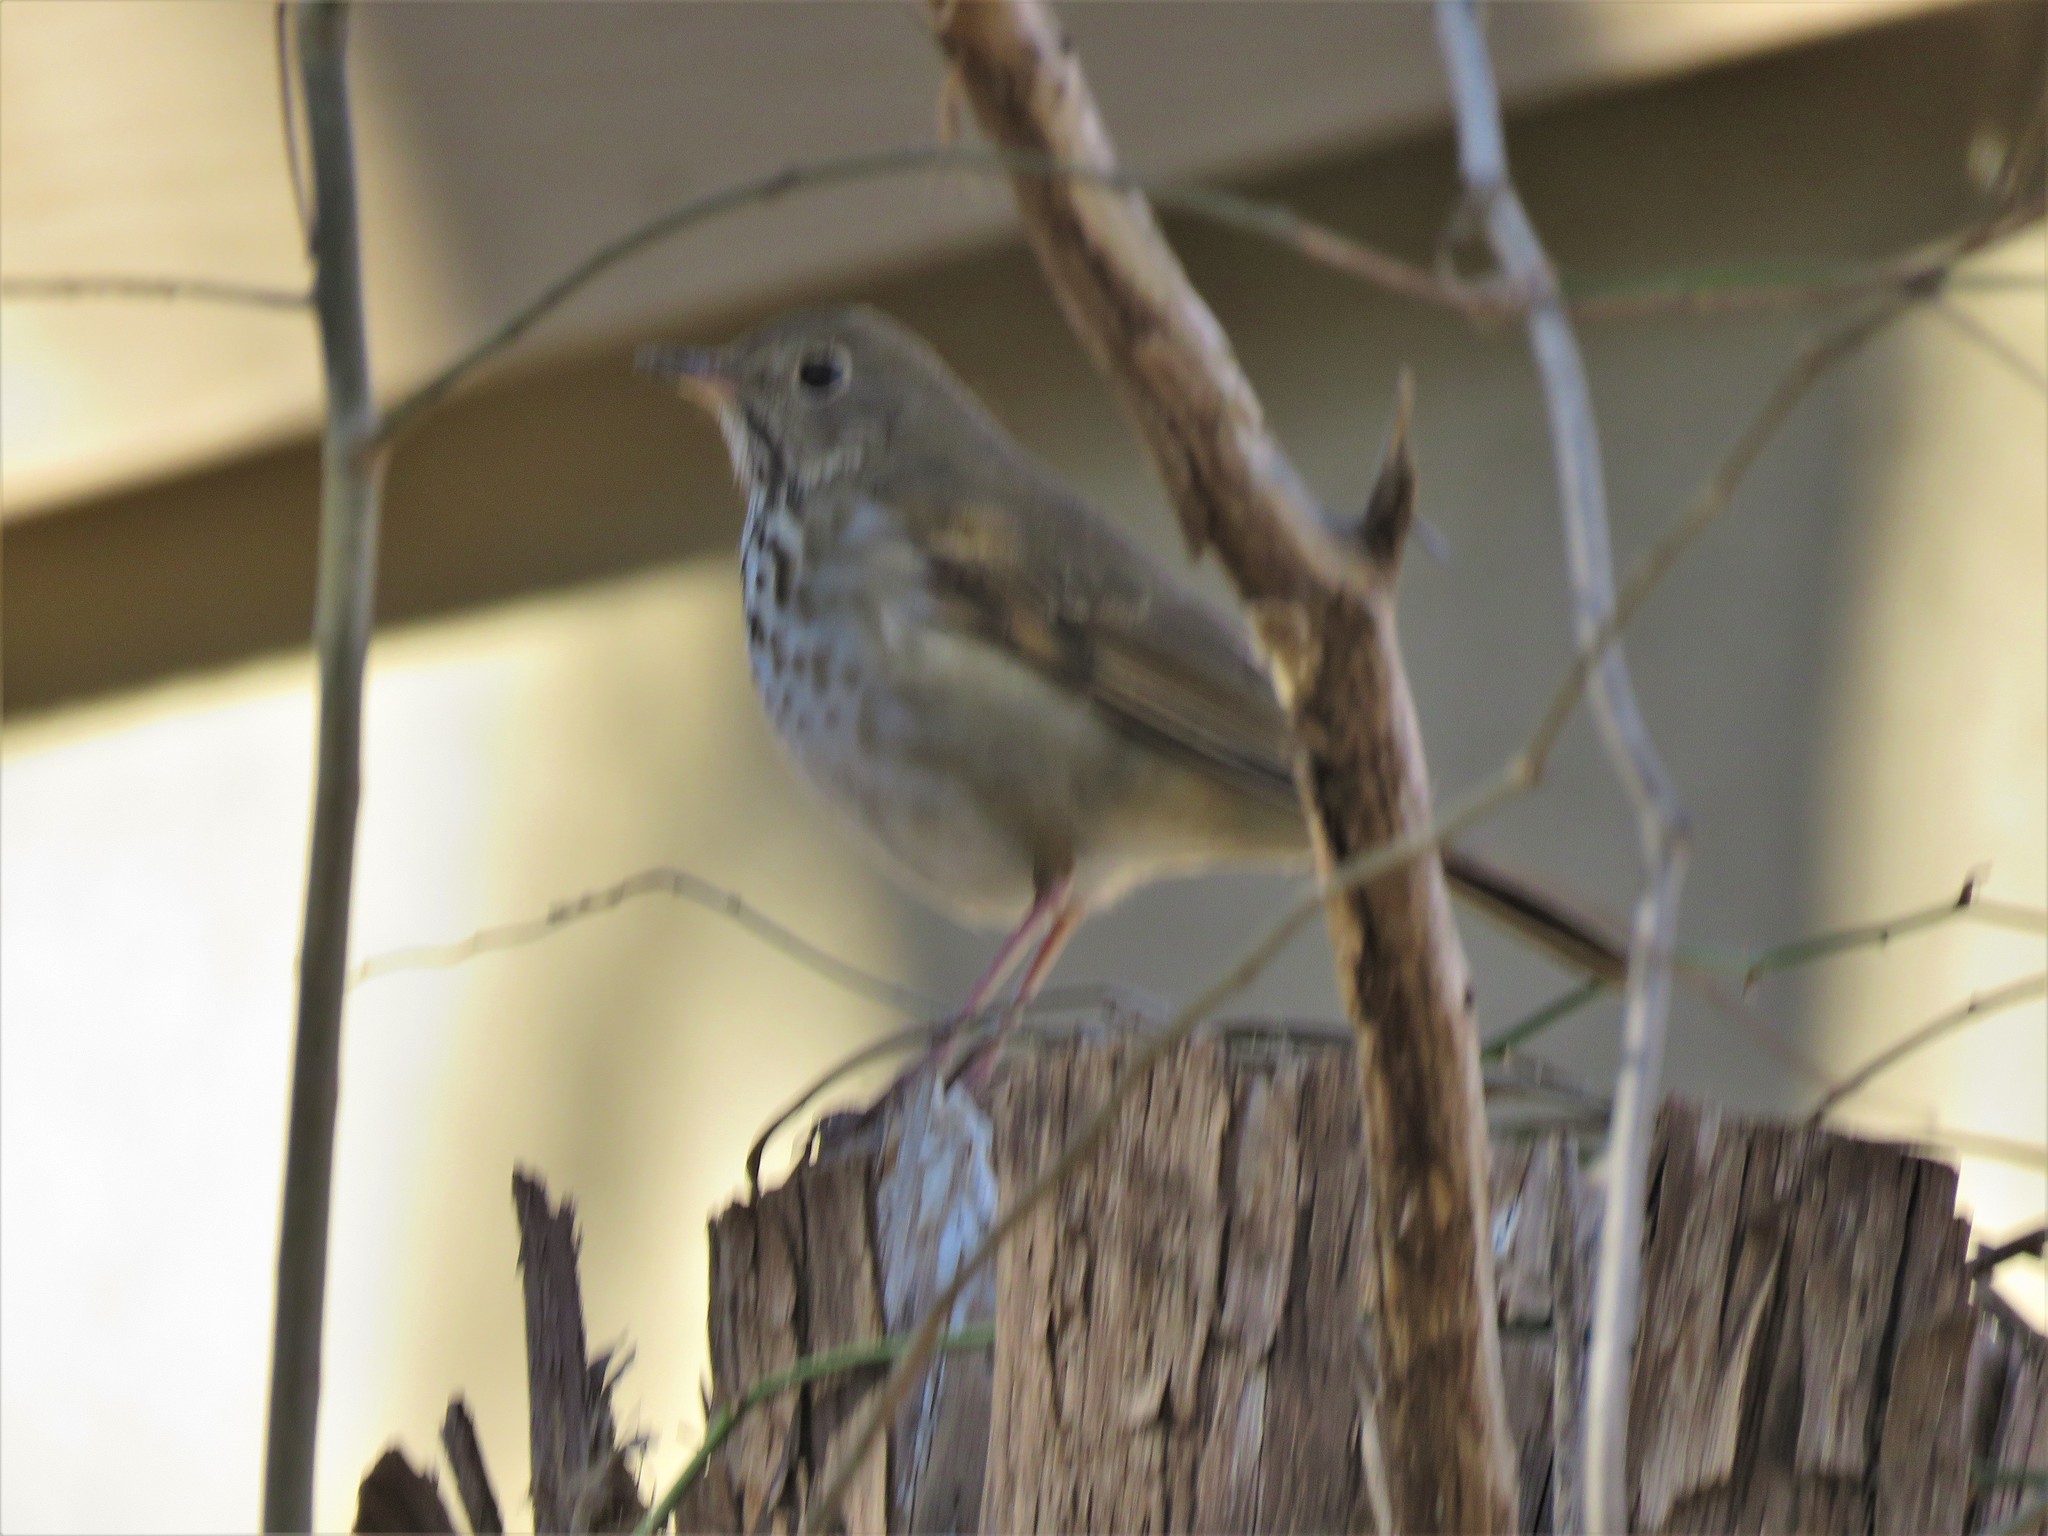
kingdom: Animalia
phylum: Chordata
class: Aves
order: Passeriformes
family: Turdidae
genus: Catharus
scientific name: Catharus guttatus
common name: Hermit thrush
